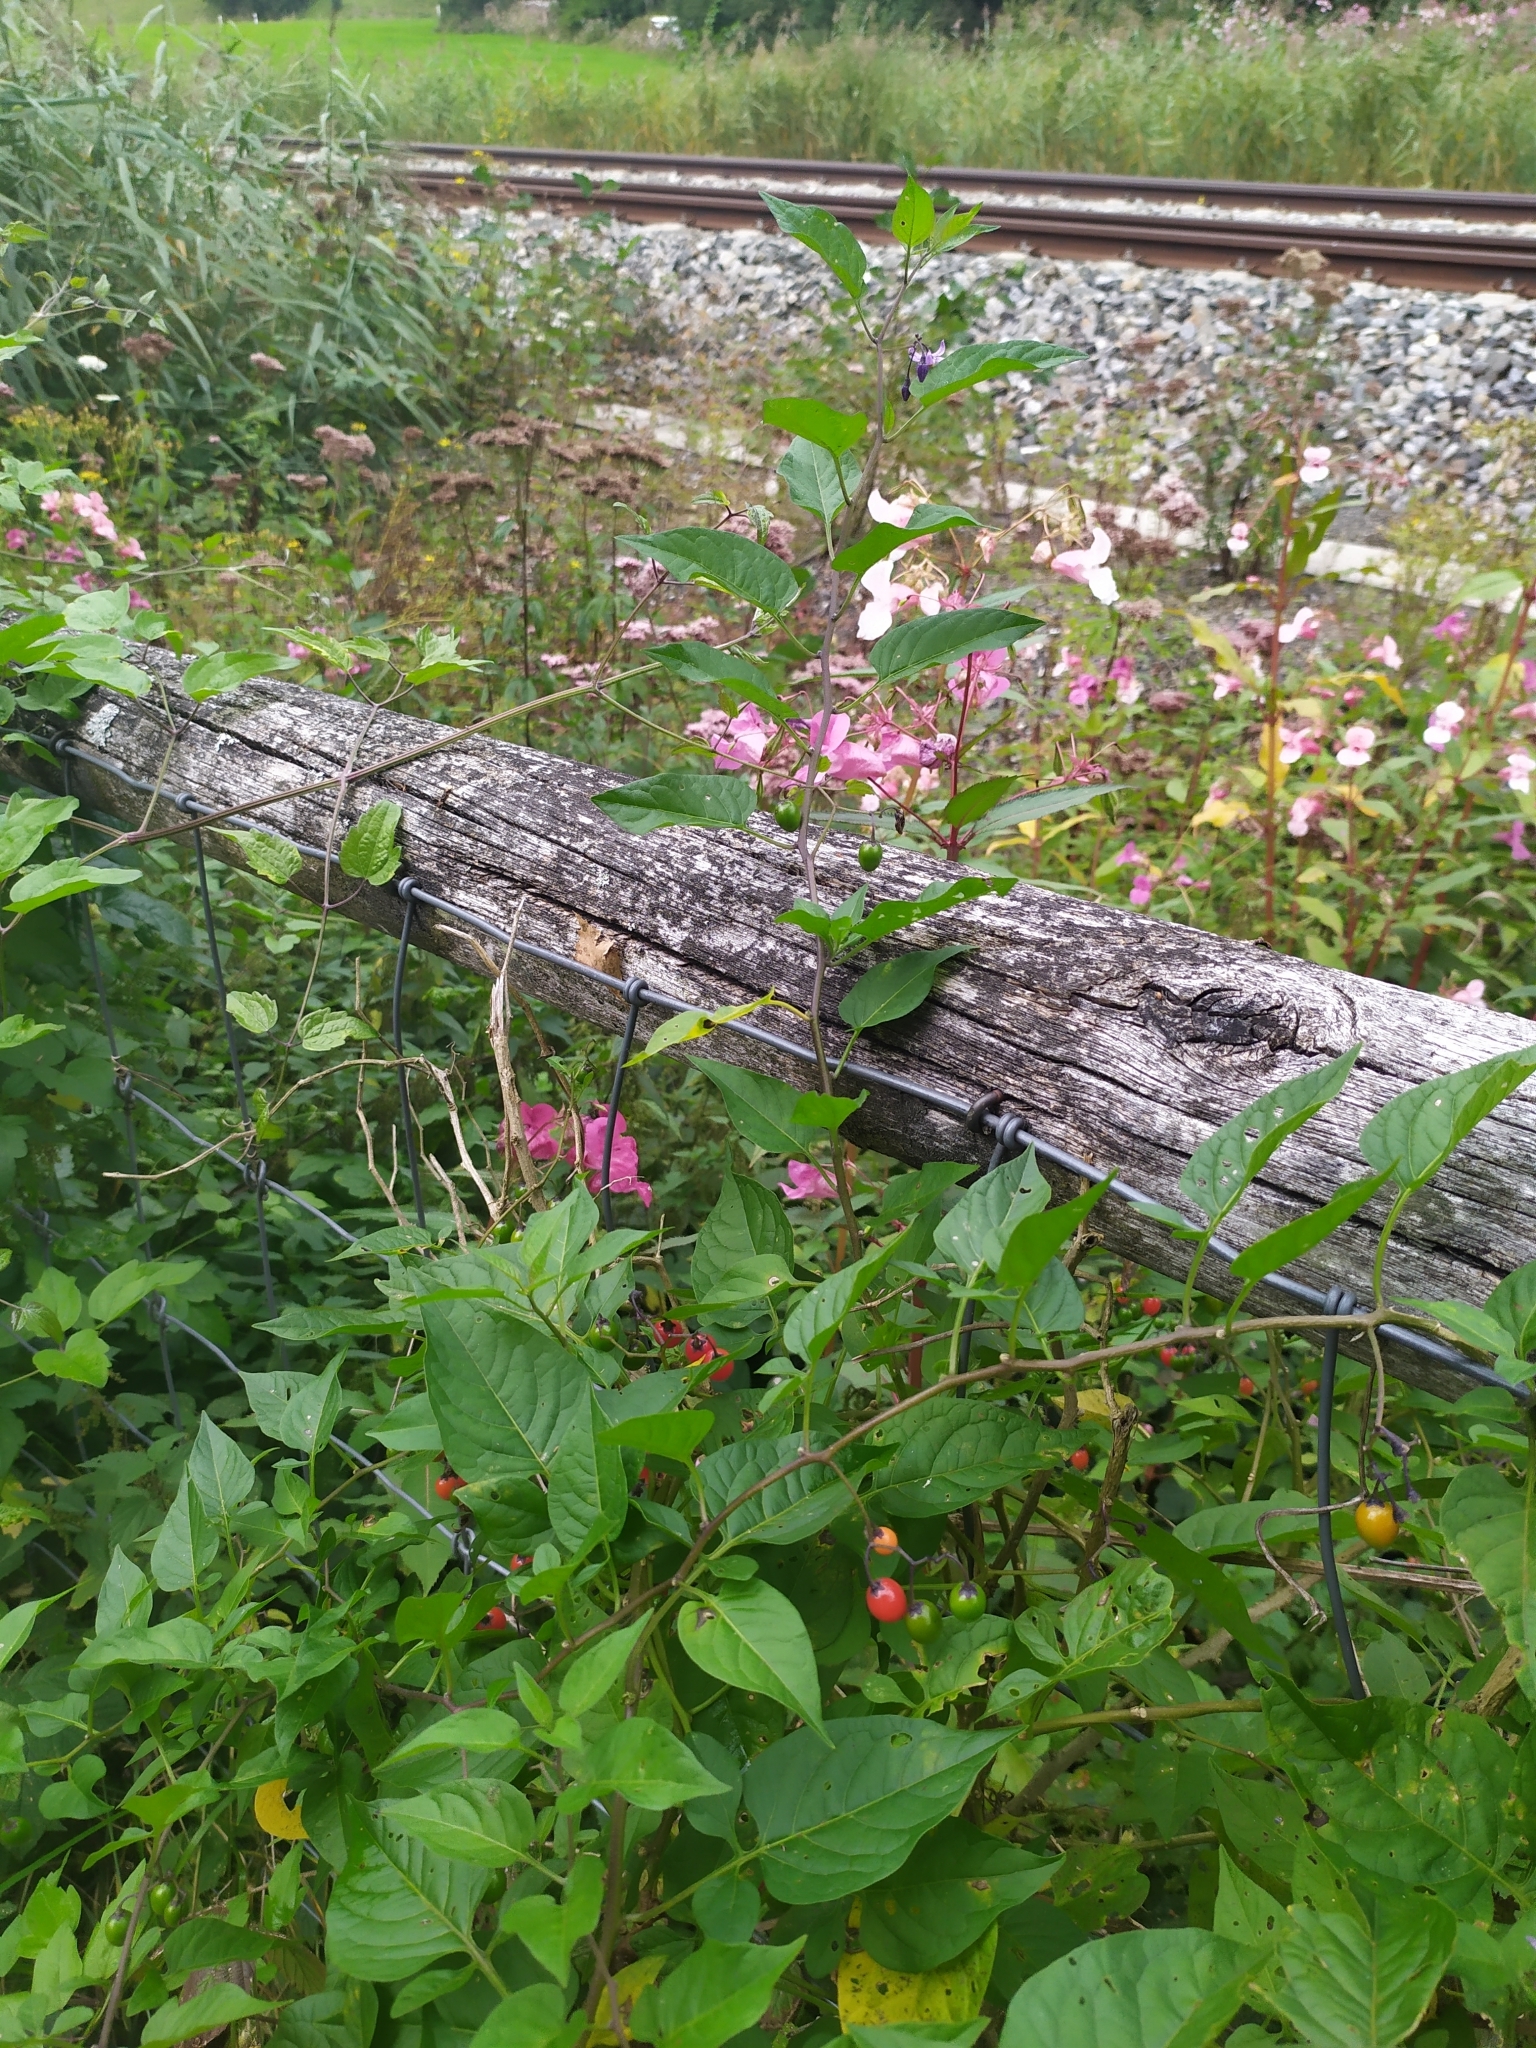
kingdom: Plantae
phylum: Tracheophyta
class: Magnoliopsida
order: Solanales
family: Solanaceae
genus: Solanum
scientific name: Solanum dulcamara
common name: Climbing nightshade
